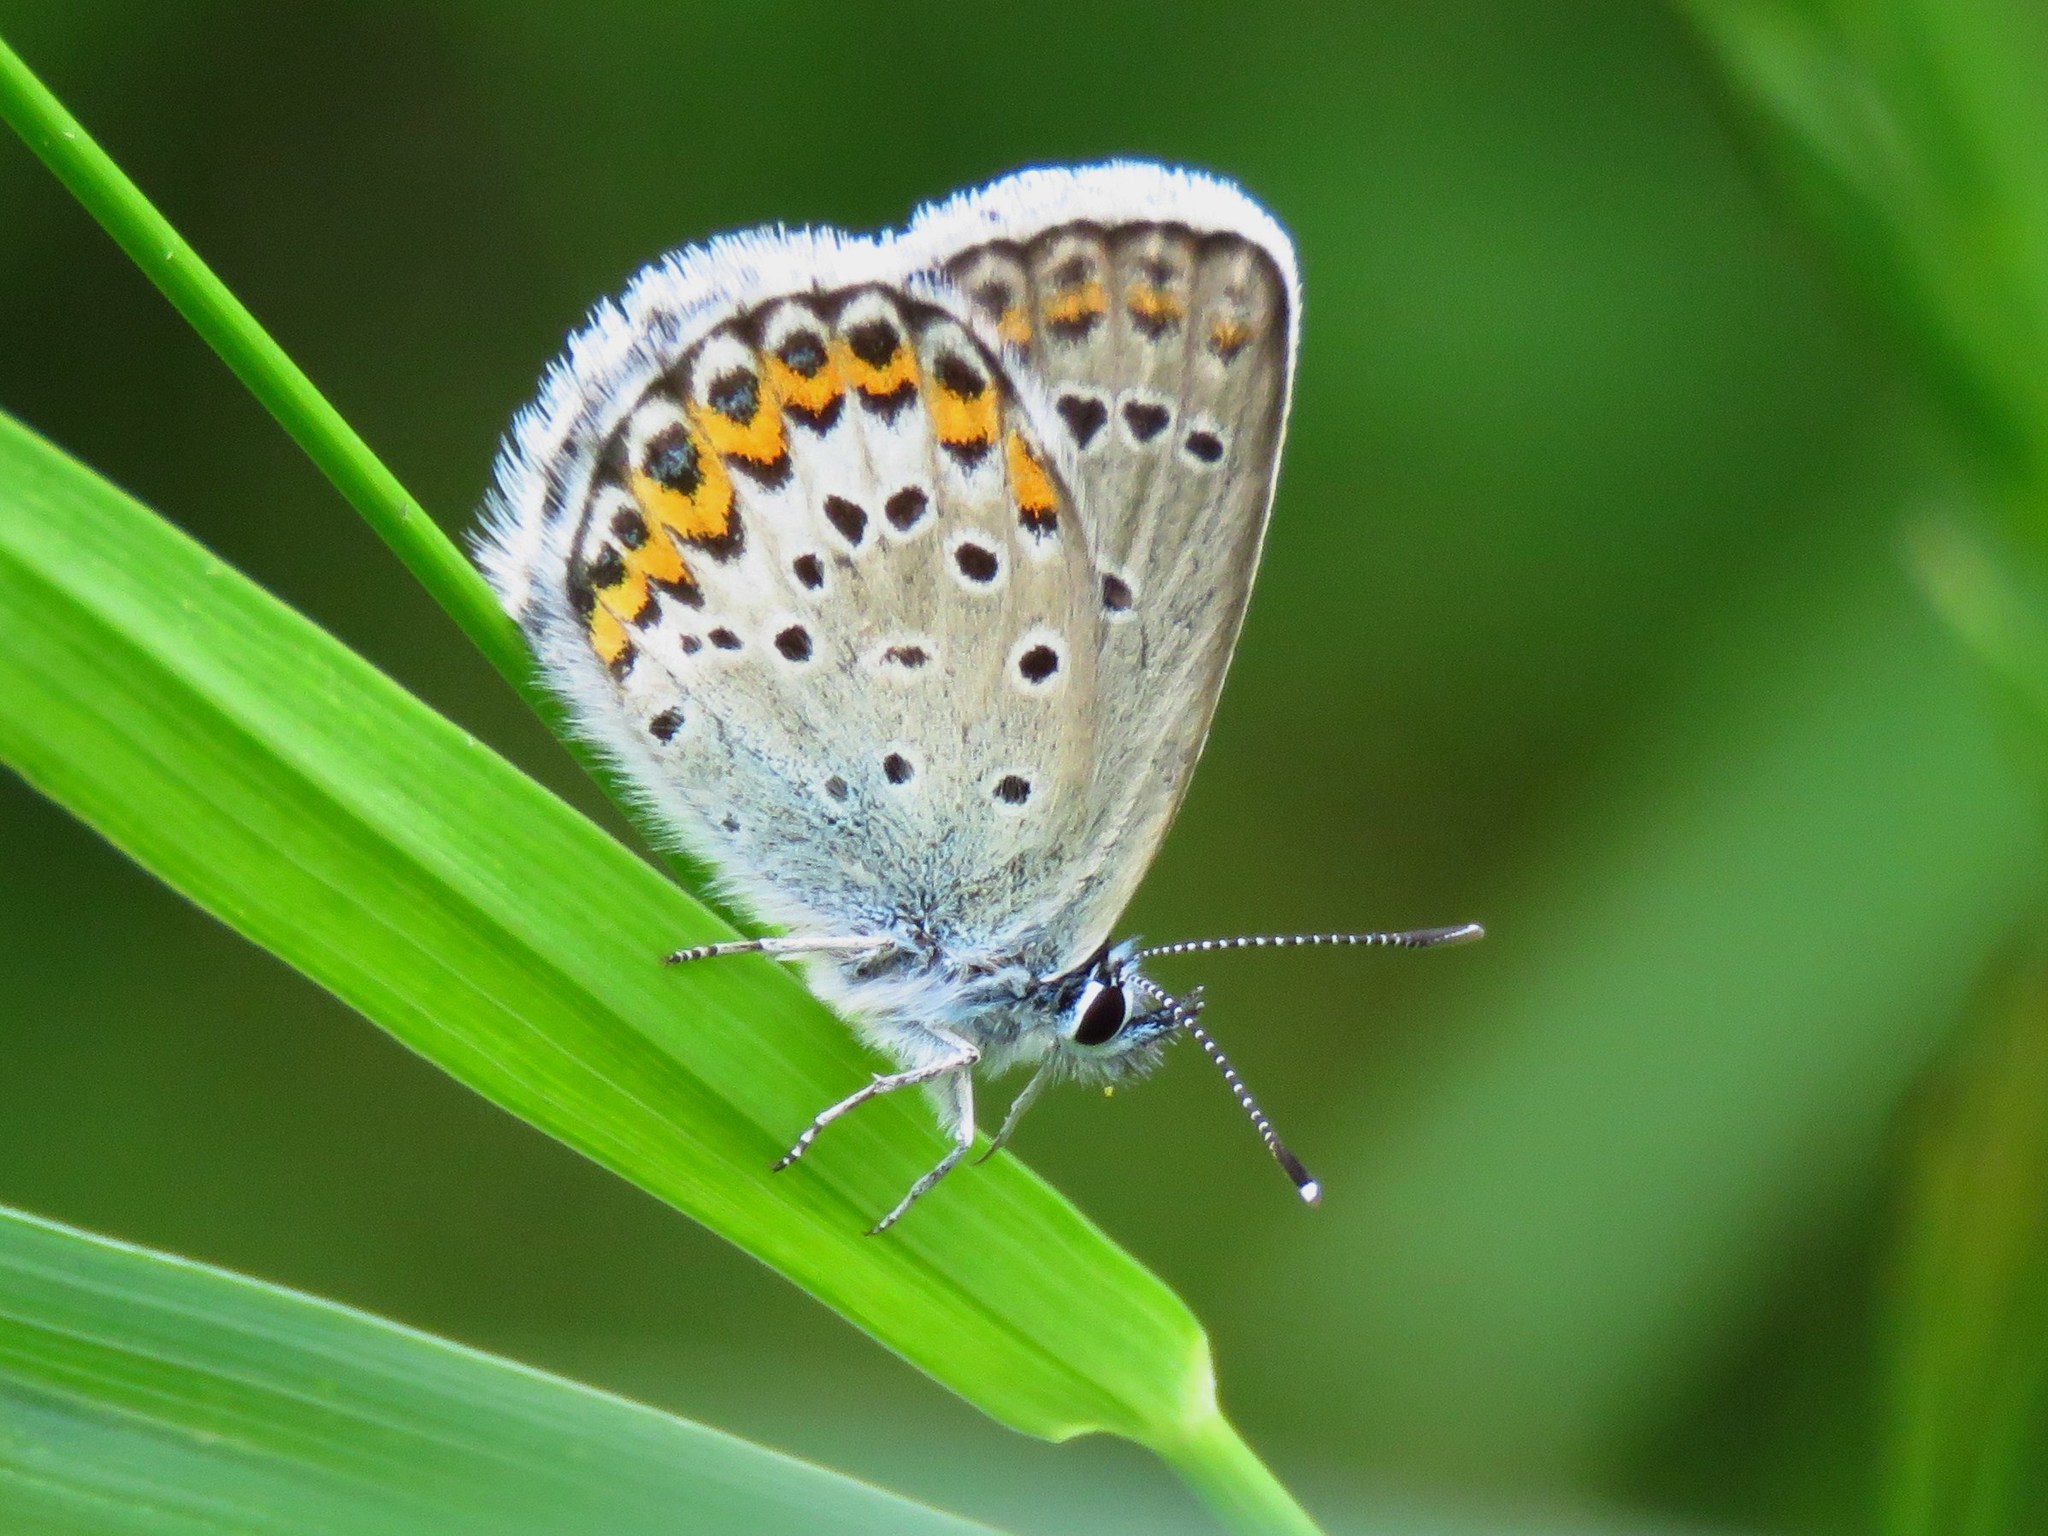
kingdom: Animalia
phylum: Arthropoda
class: Insecta
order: Lepidoptera
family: Lycaenidae
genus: Lycaeides
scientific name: Lycaeides idas
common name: Northern blue
